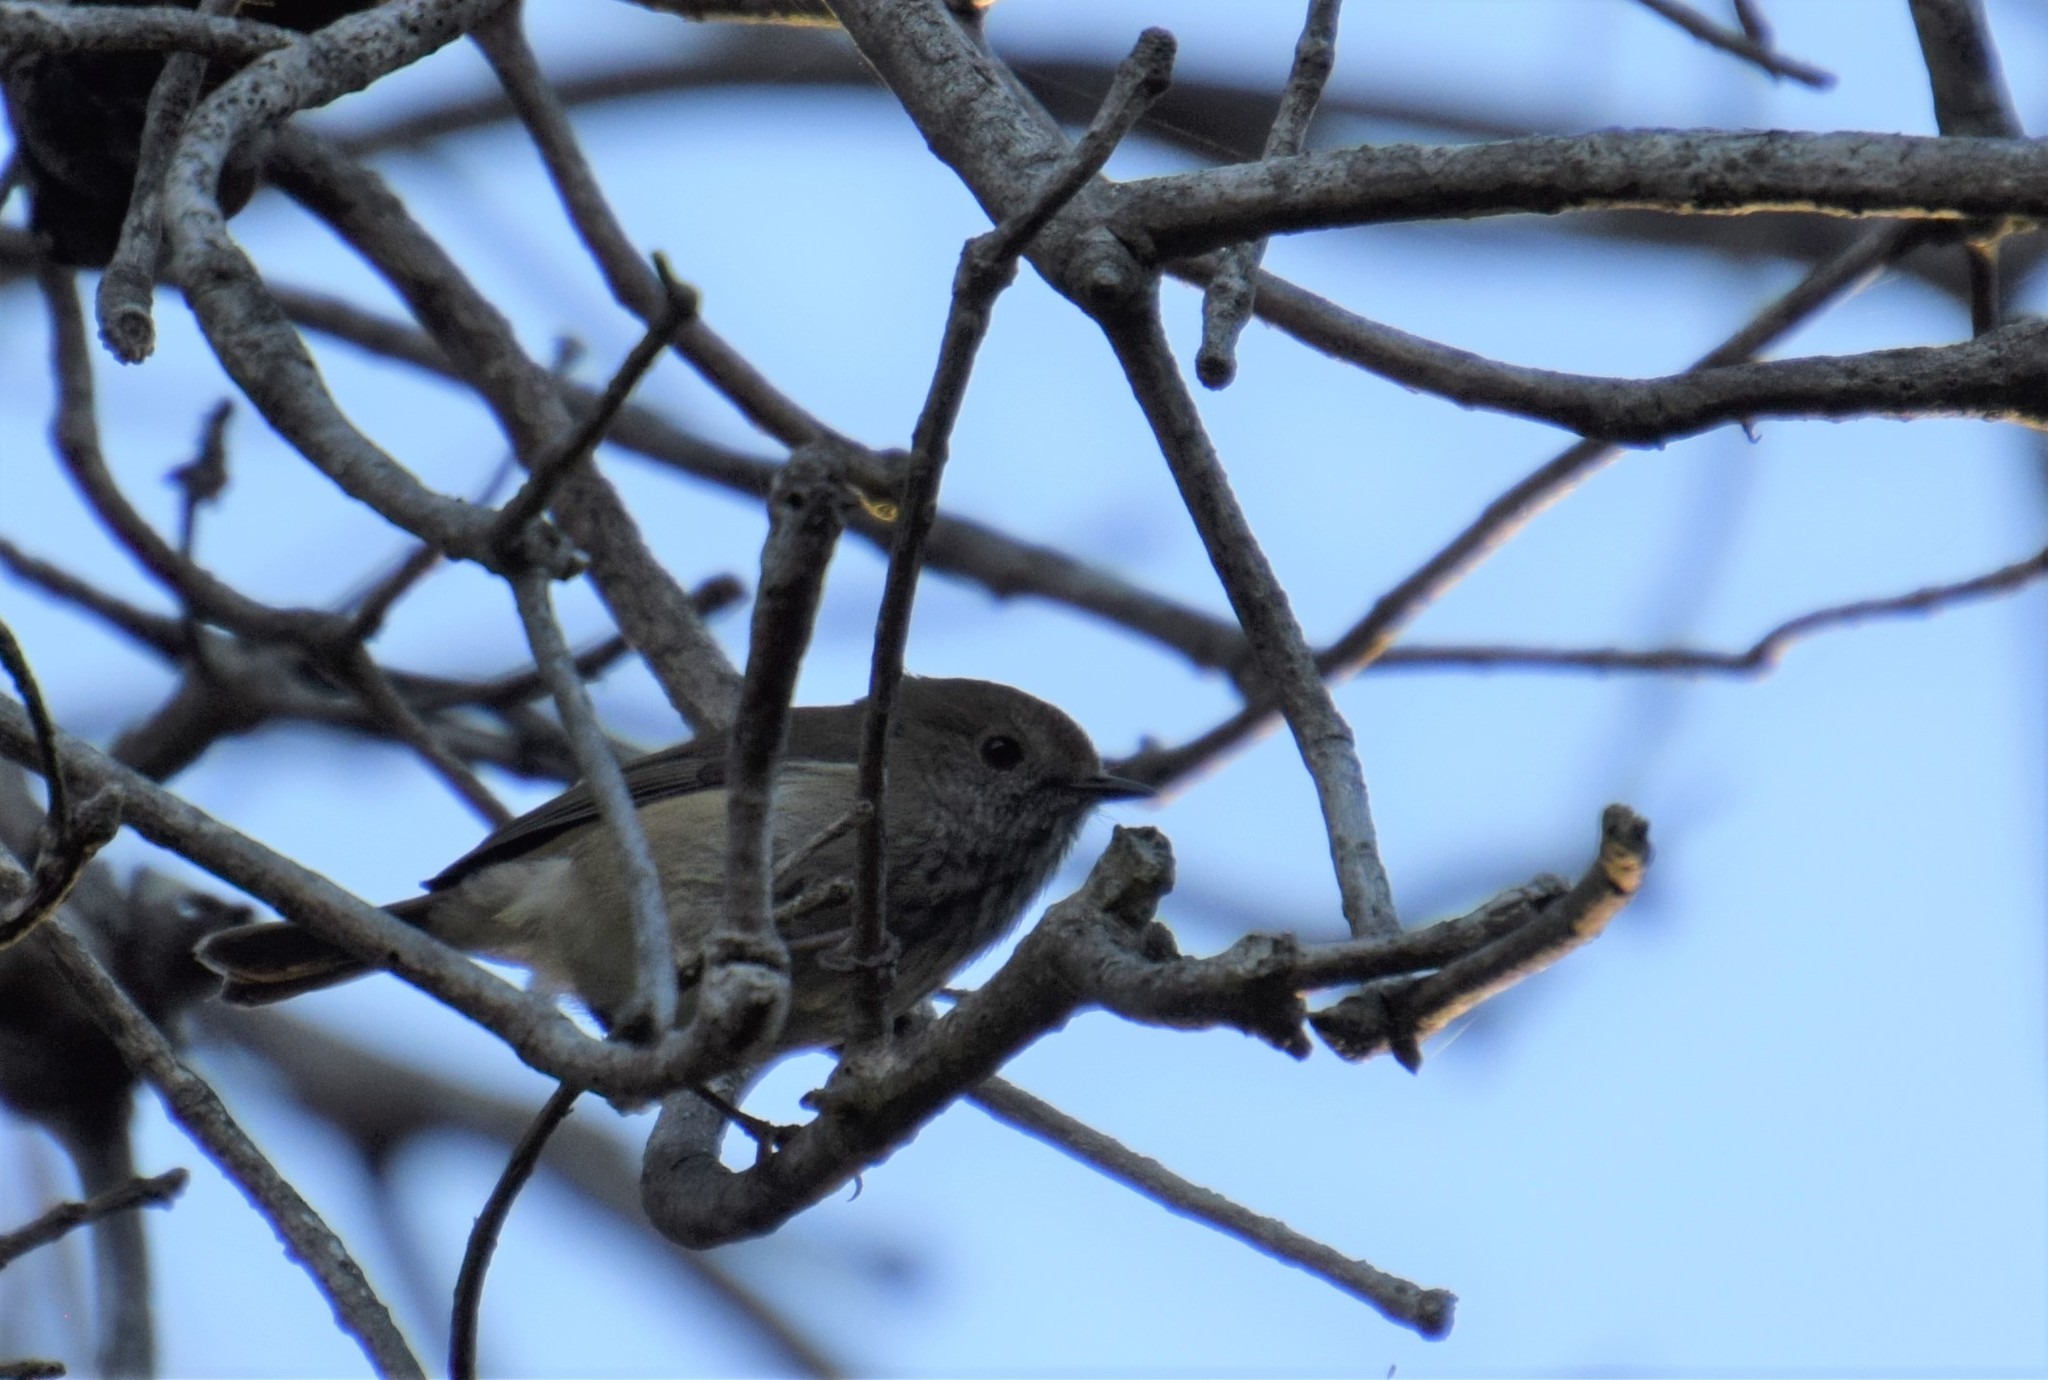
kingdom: Animalia
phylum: Chordata
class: Aves
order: Passeriformes
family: Acanthizidae
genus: Acanthiza
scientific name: Acanthiza pusilla
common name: Brown thornbill
